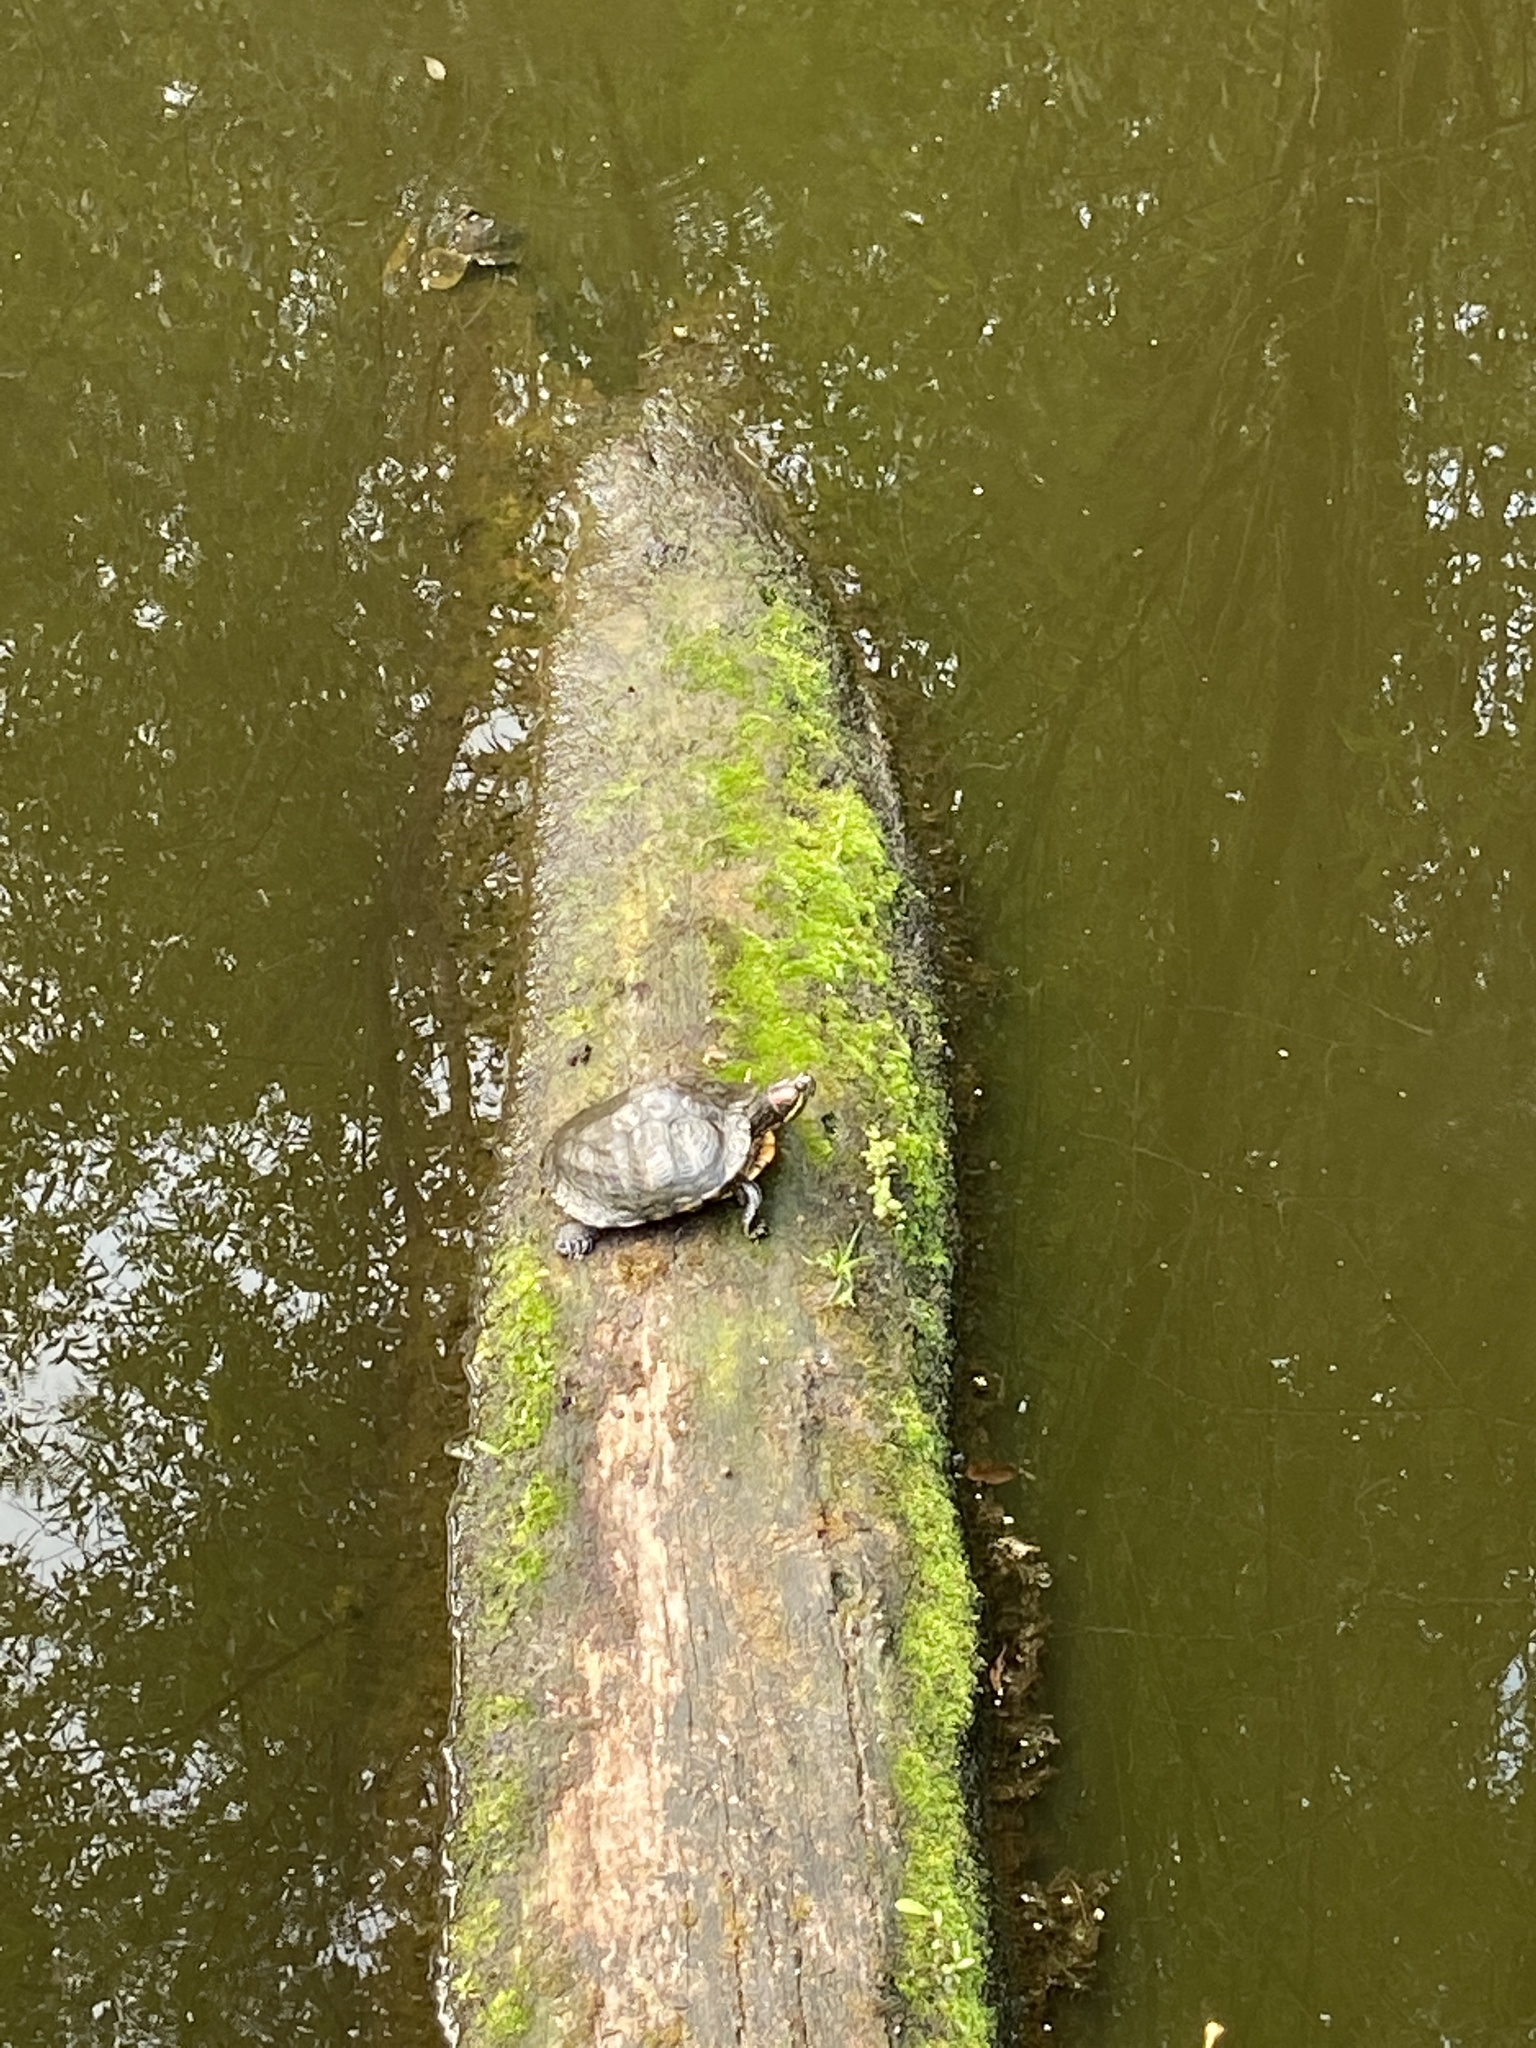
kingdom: Animalia
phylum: Chordata
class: Testudines
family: Emydidae
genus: Trachemys
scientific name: Trachemys scripta
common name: Slider
